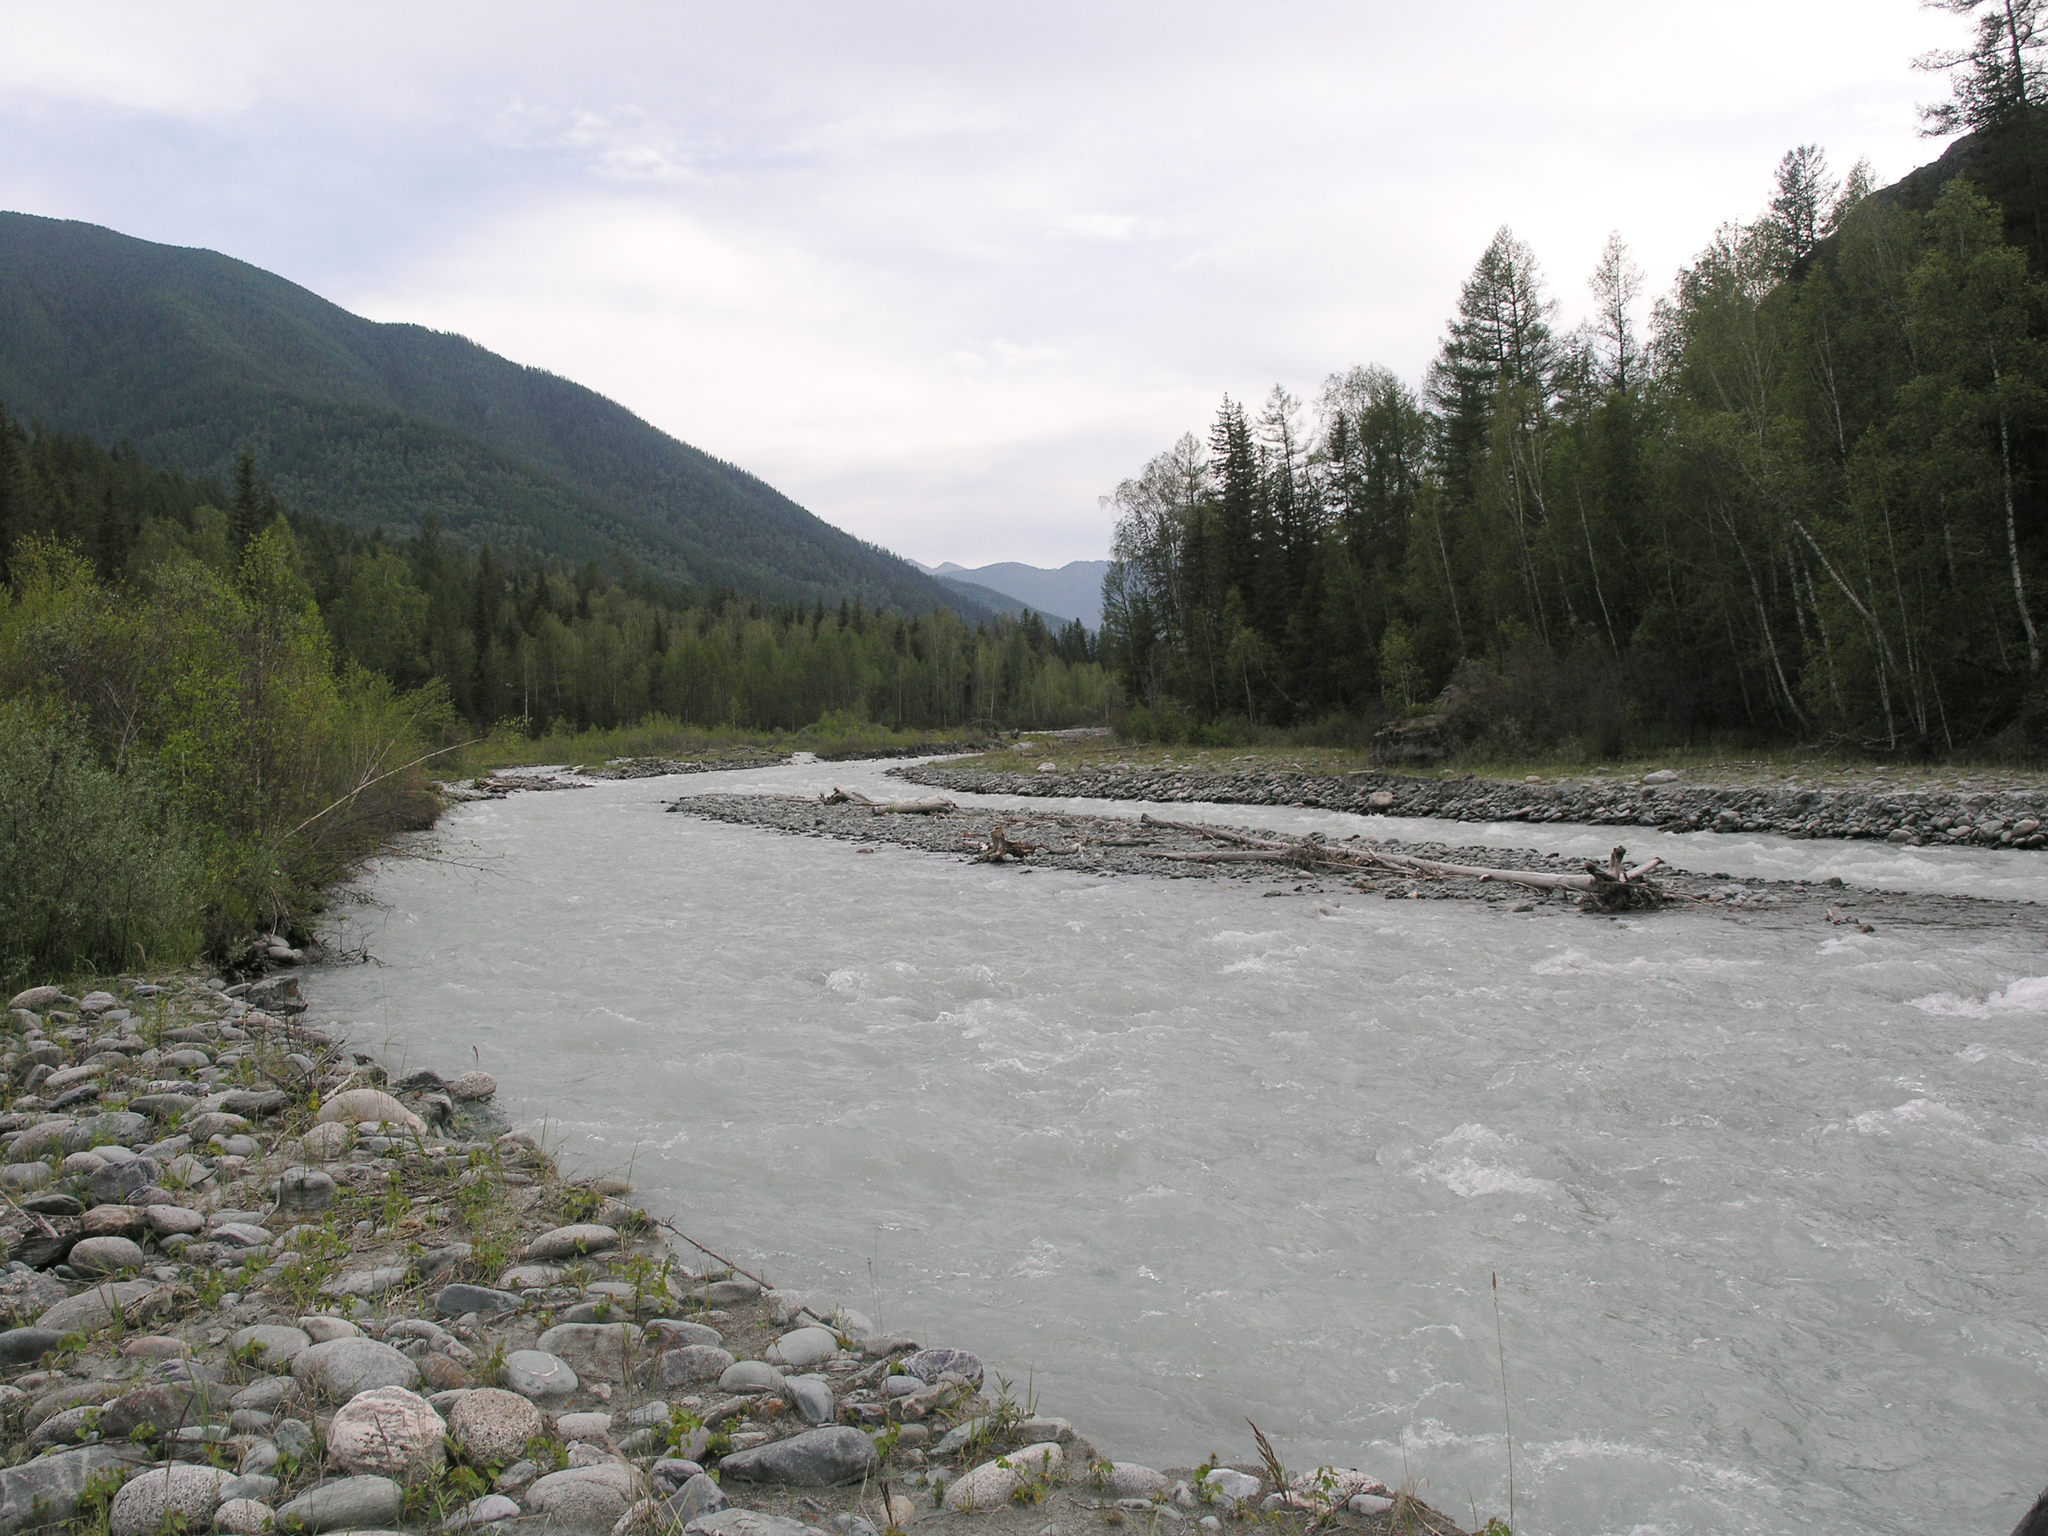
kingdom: Plantae
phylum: Tracheophyta
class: Pinopsida
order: Pinales
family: Pinaceae
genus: Larix
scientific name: Larix sibirica
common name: Siberian larch
